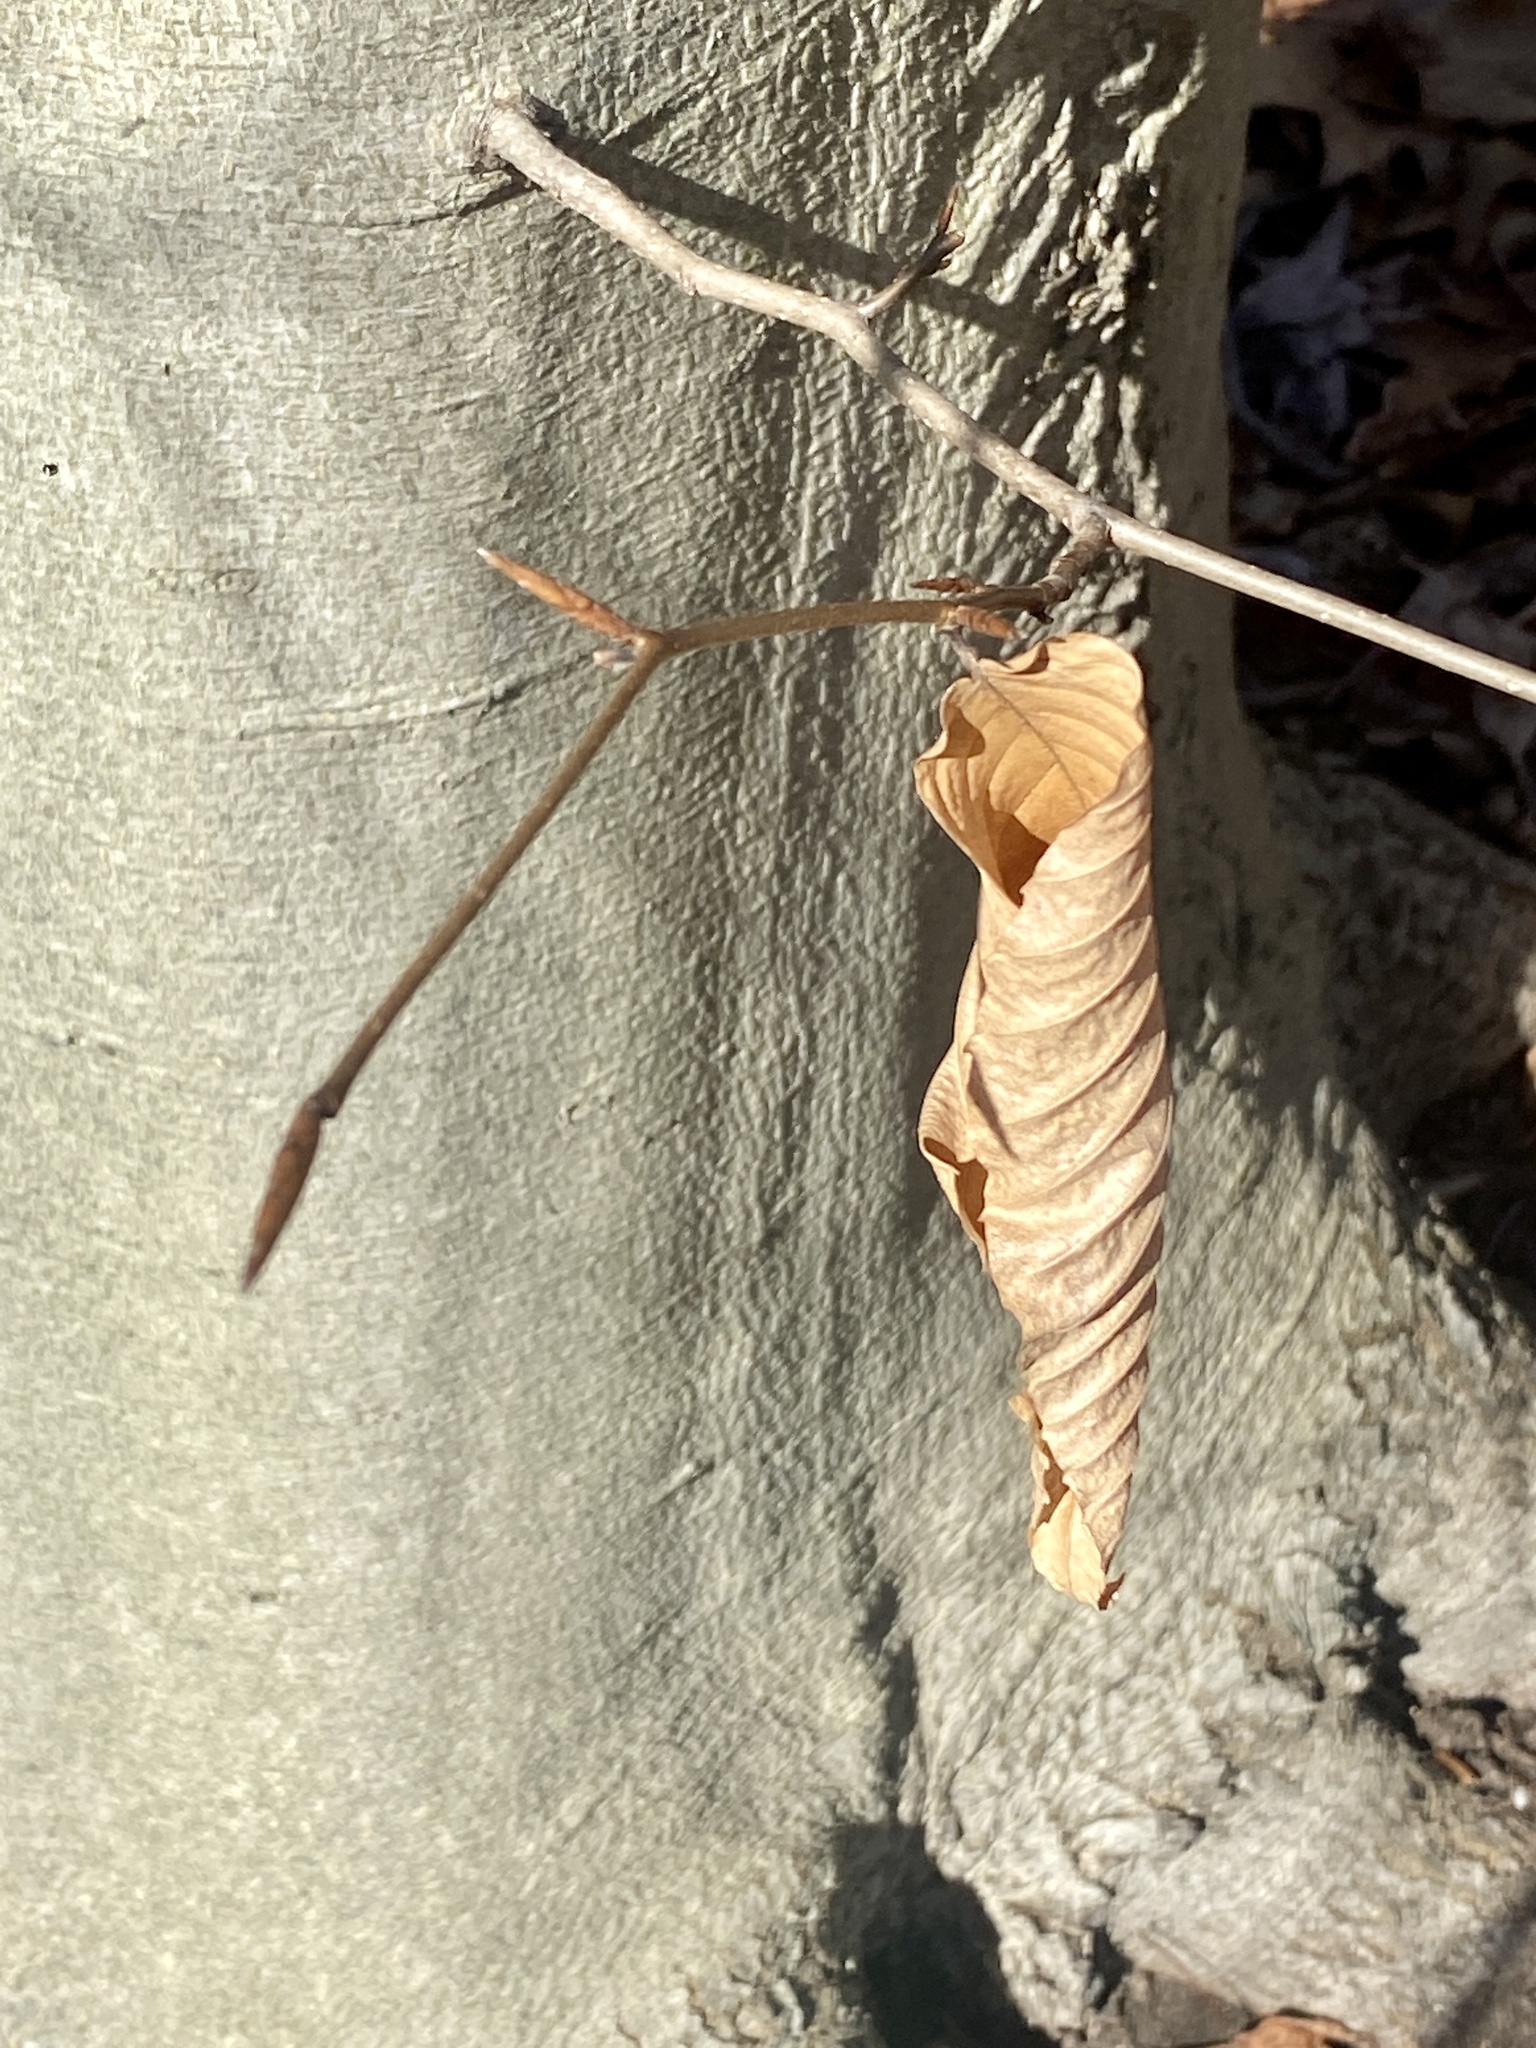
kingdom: Plantae
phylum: Tracheophyta
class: Magnoliopsida
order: Fagales
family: Fagaceae
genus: Fagus
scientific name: Fagus grandifolia
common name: American beech
